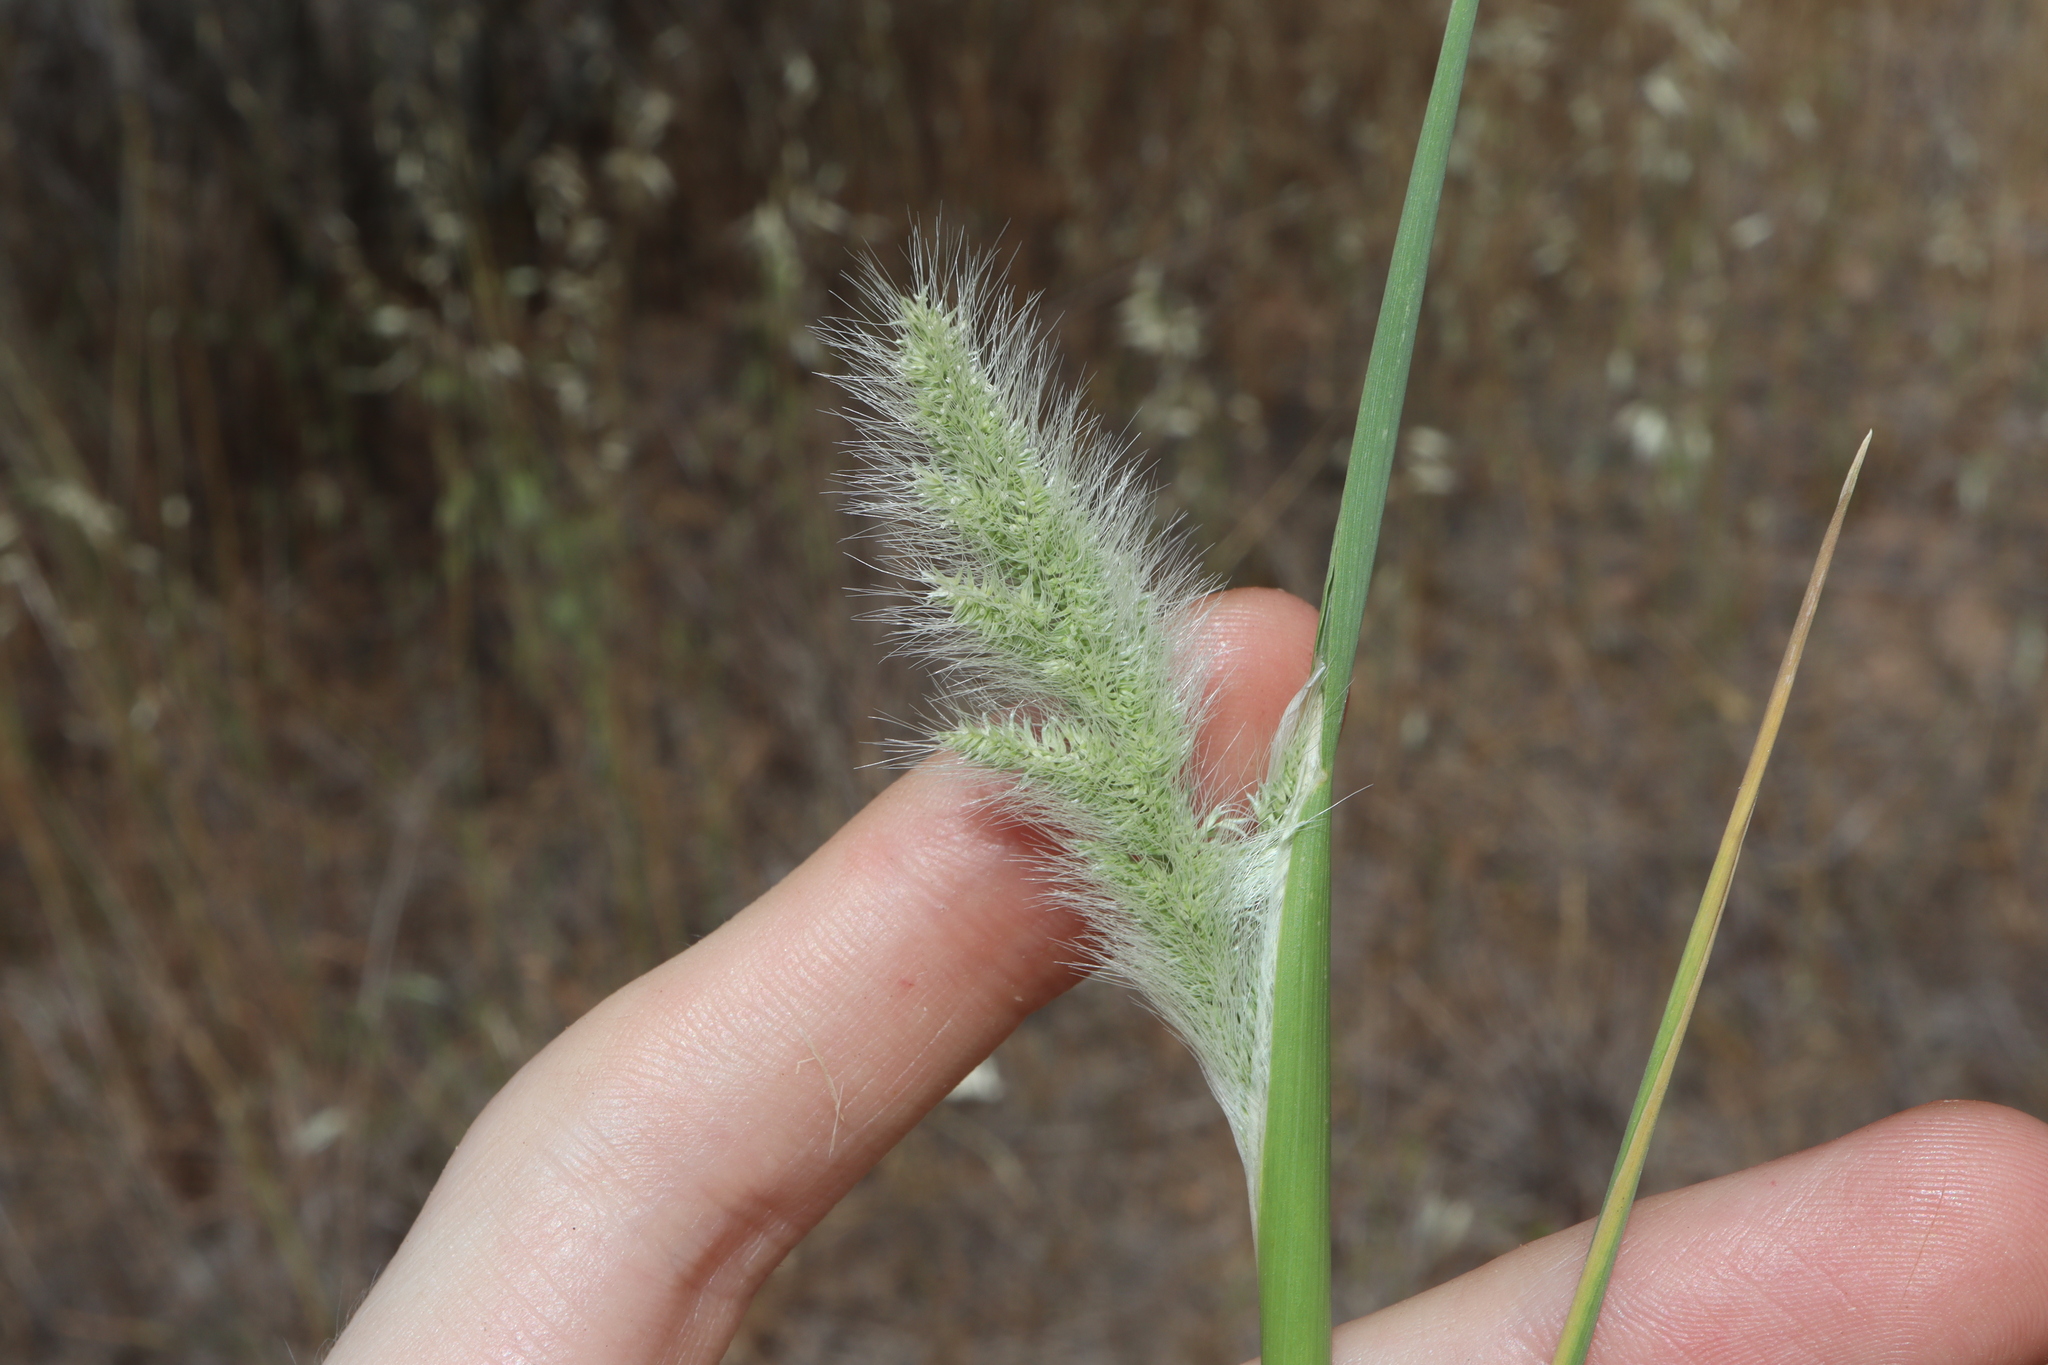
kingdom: Plantae
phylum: Tracheophyta
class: Liliopsida
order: Poales
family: Poaceae
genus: Polypogon
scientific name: Polypogon monspeliensis
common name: Annual rabbitsfoot grass
